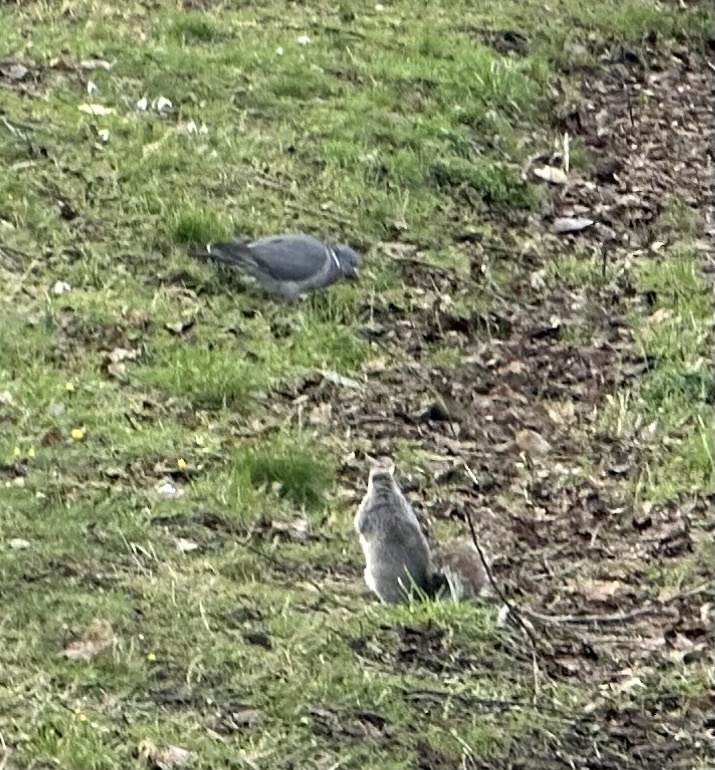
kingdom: Animalia
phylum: Chordata
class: Aves
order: Columbiformes
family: Columbidae
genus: Columba
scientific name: Columba palumbus
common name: Common wood pigeon
